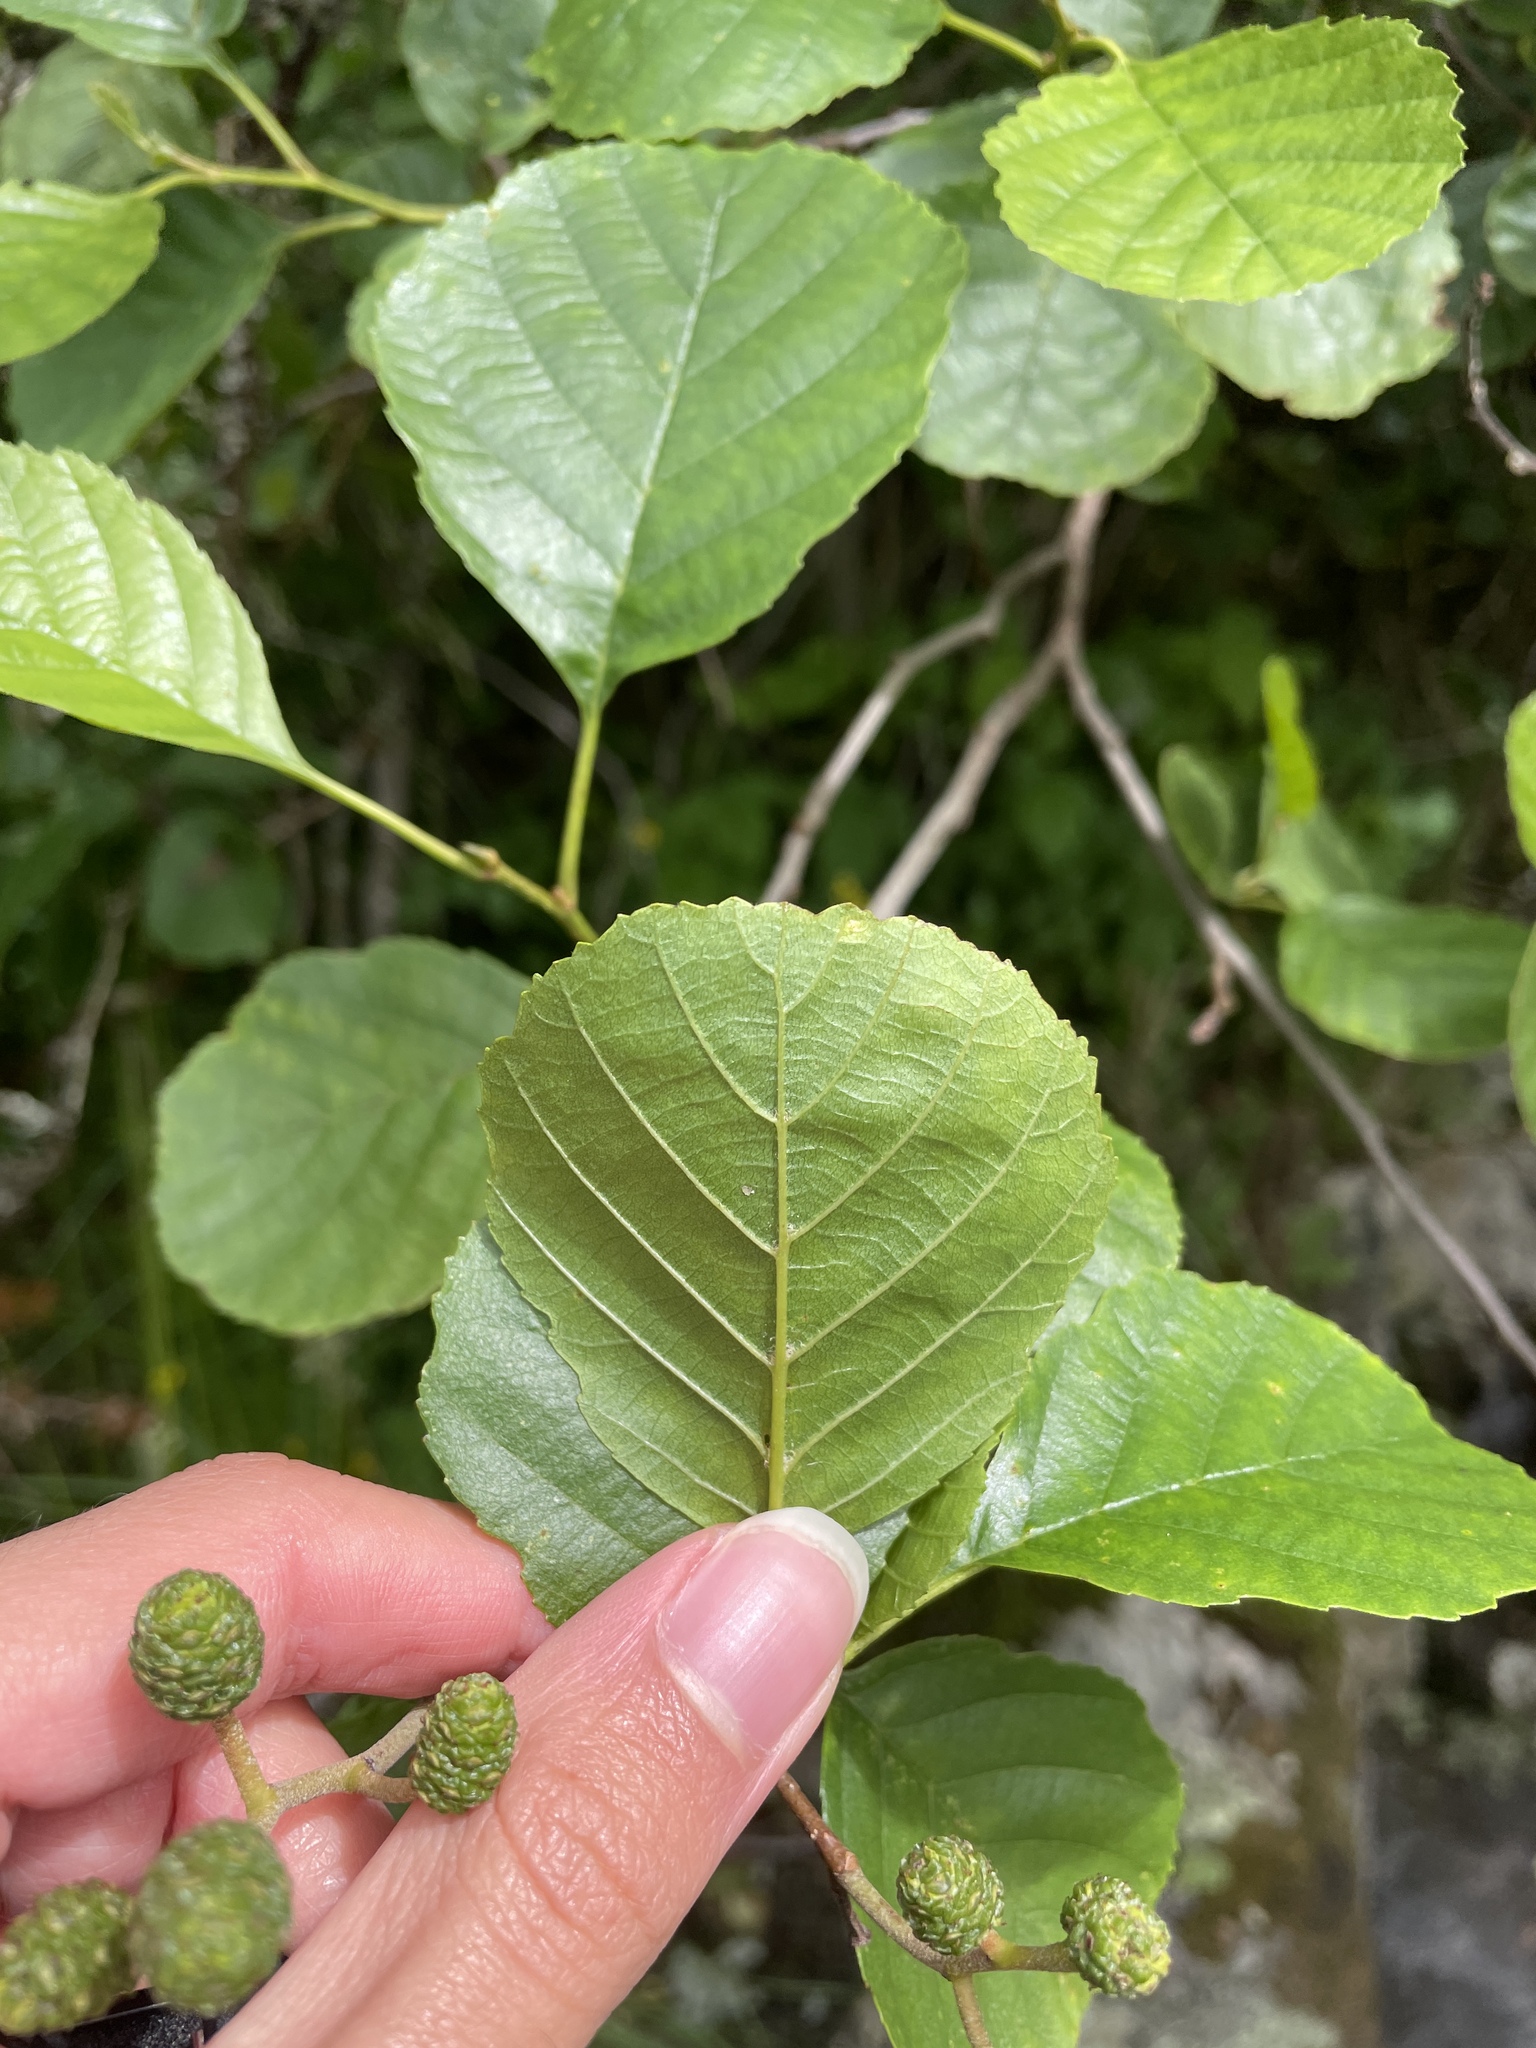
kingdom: Plantae
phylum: Tracheophyta
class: Magnoliopsida
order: Fagales
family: Betulaceae
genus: Alnus
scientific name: Alnus glutinosa
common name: Black alder
